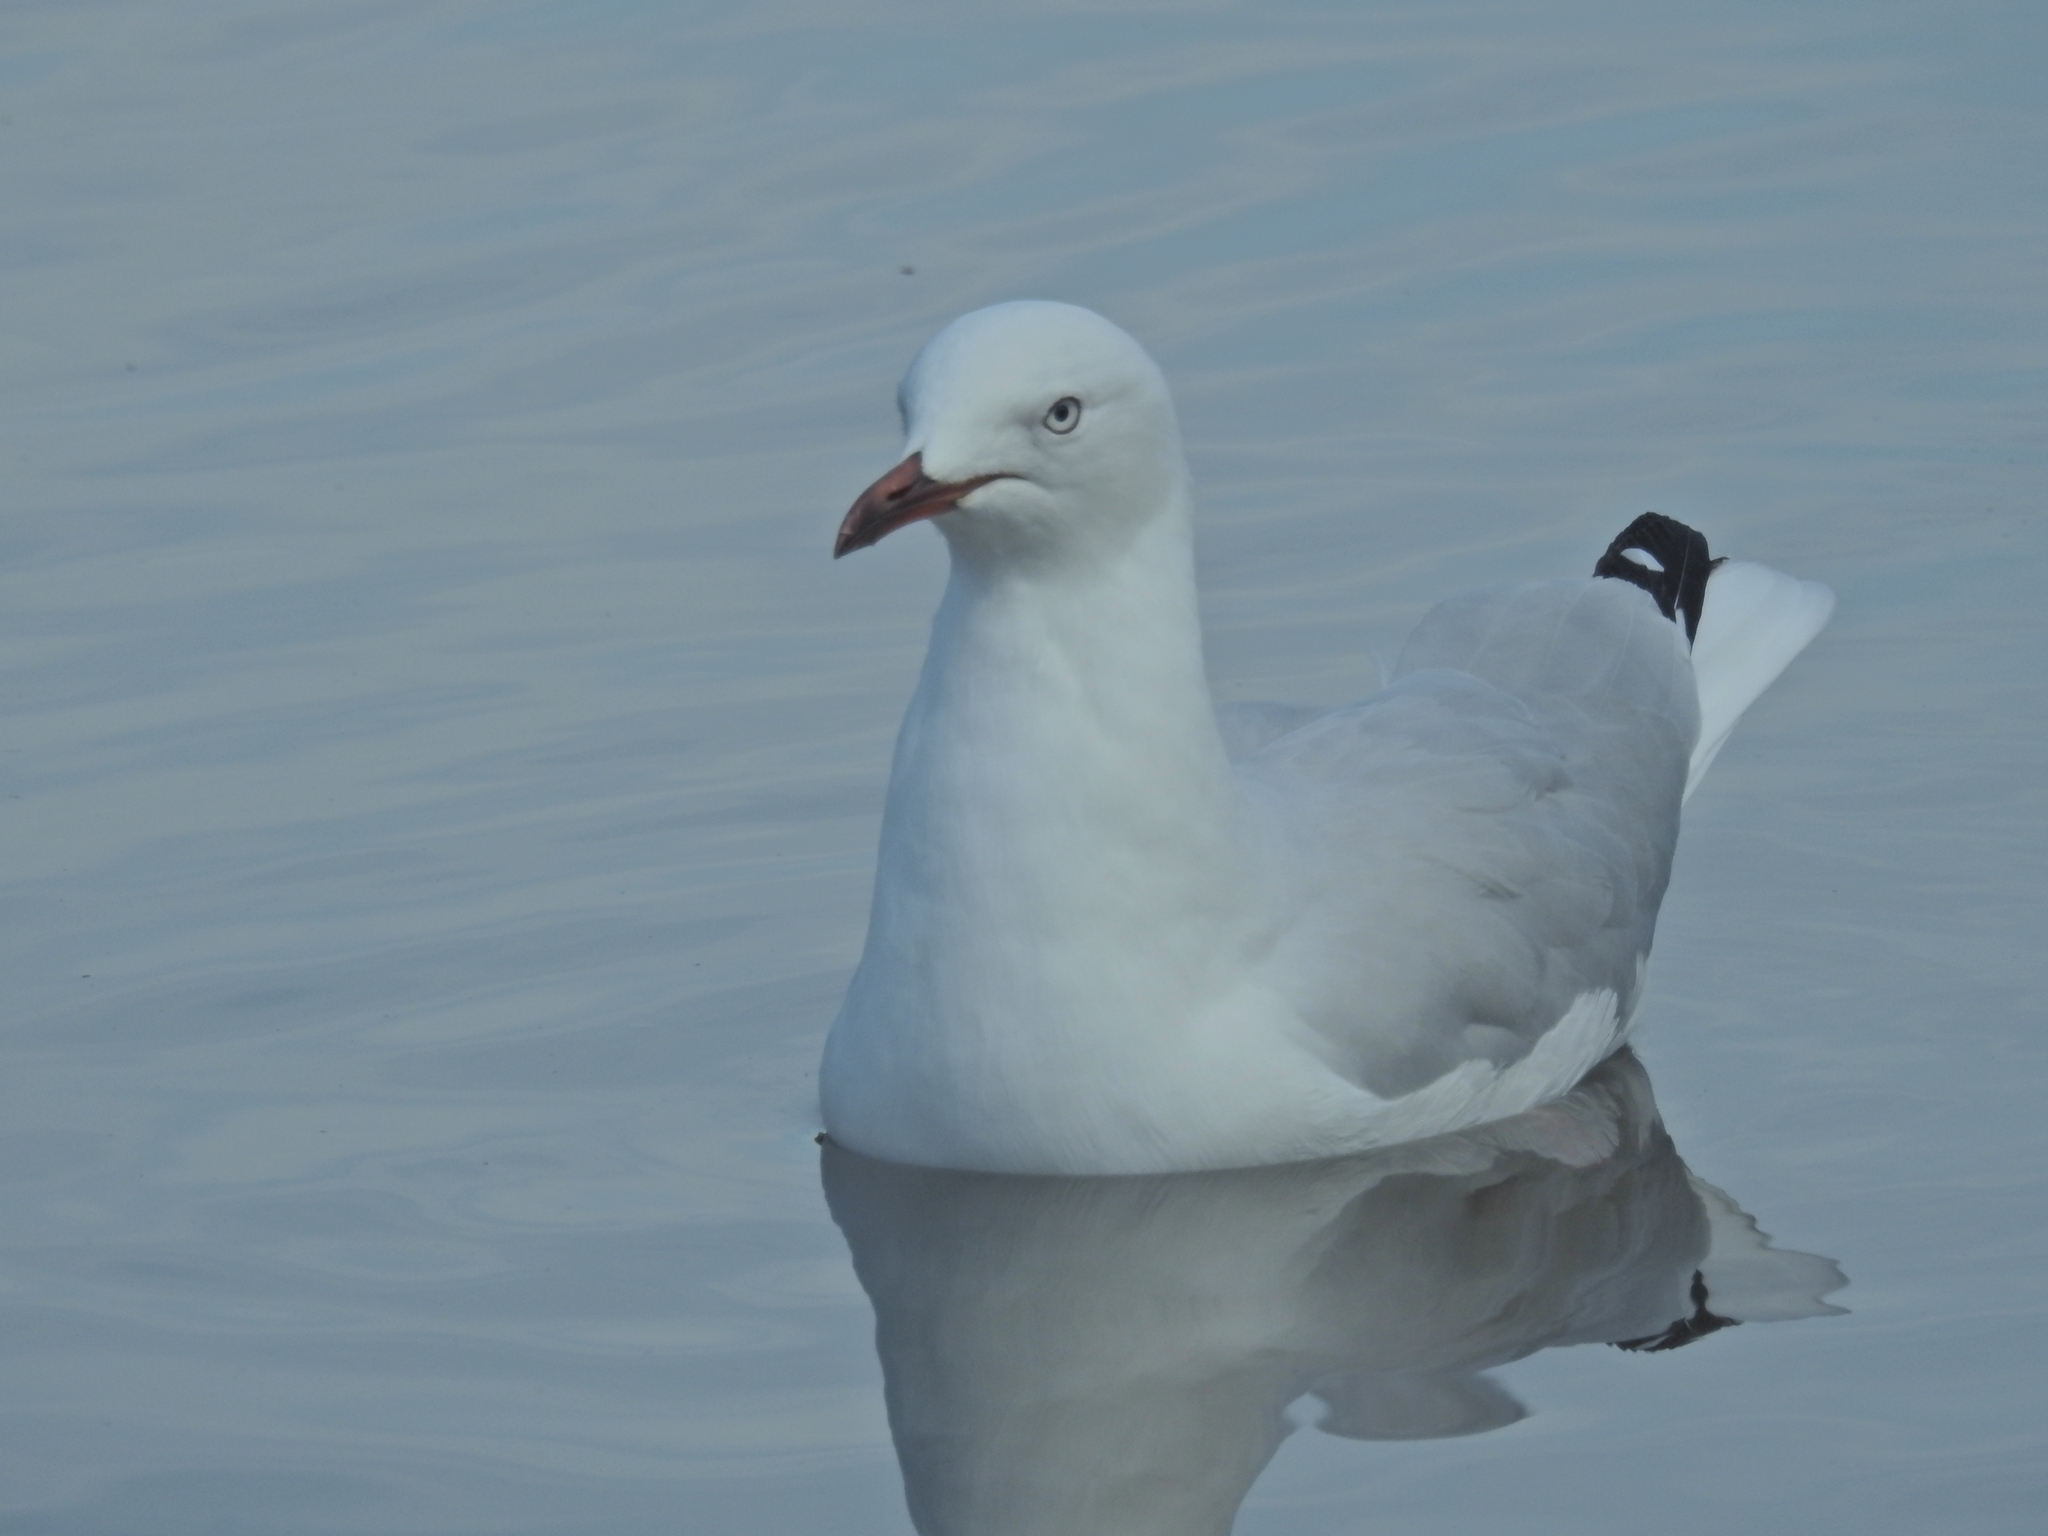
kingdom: Animalia
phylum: Chordata
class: Aves
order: Charadriiformes
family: Laridae
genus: Chroicocephalus
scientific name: Chroicocephalus novaehollandiae
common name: Silver gull
